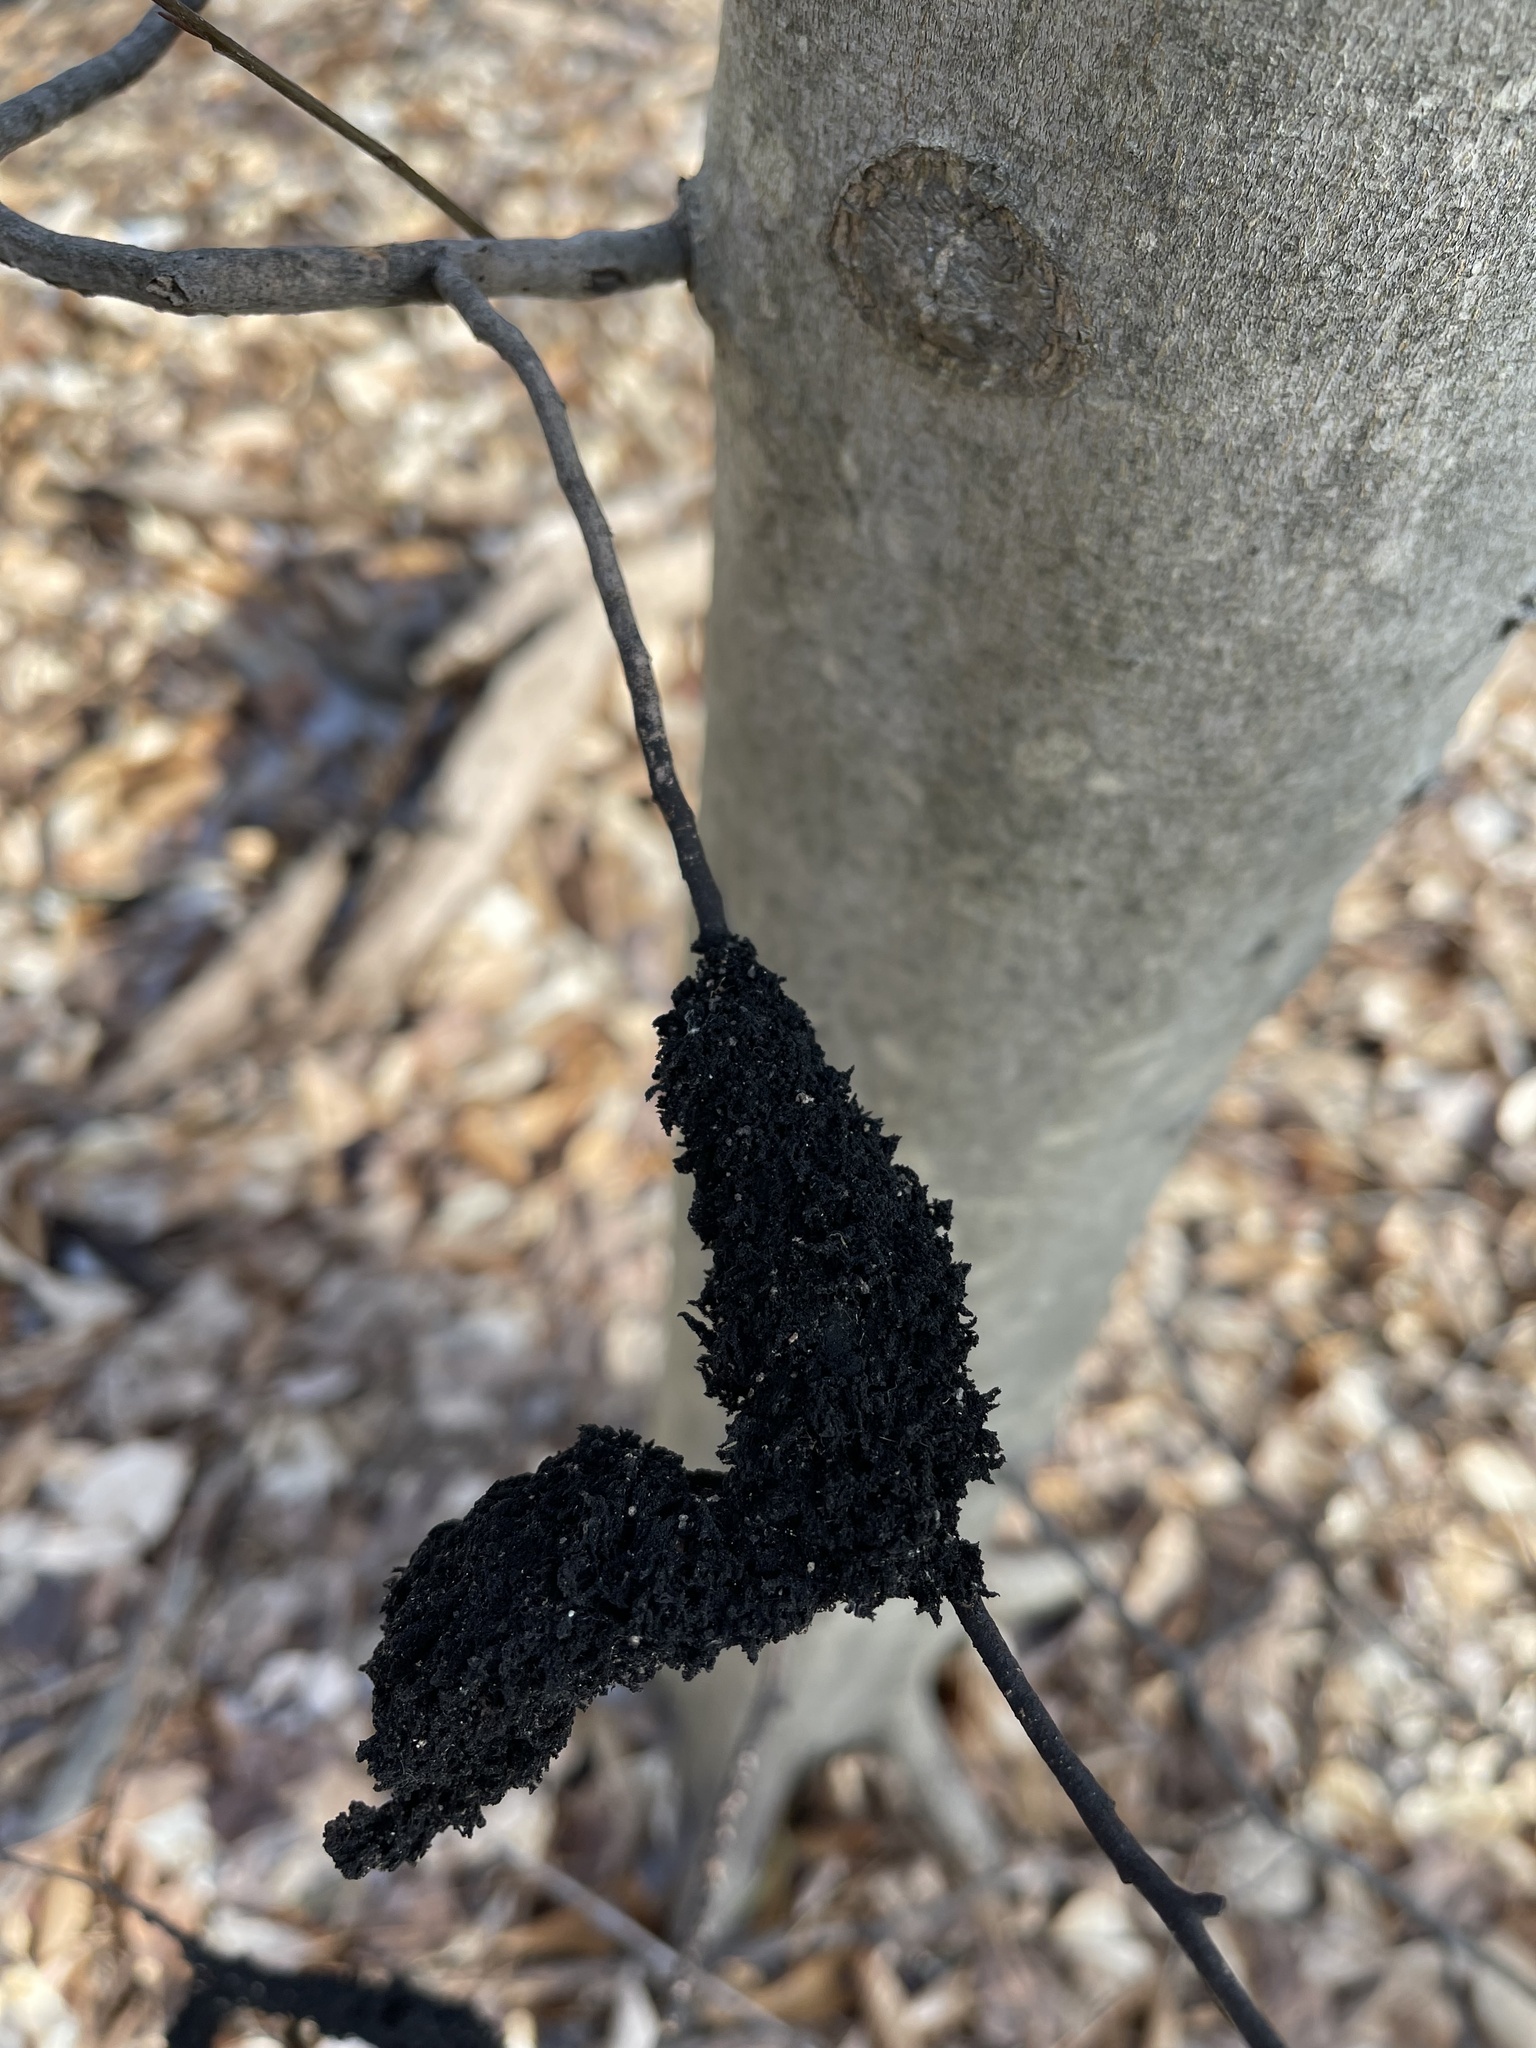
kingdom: Fungi
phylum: Ascomycota
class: Dothideomycetes
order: Capnodiales
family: Capnodiaceae
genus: Scorias
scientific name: Scorias spongiosa
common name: Black sooty mold
